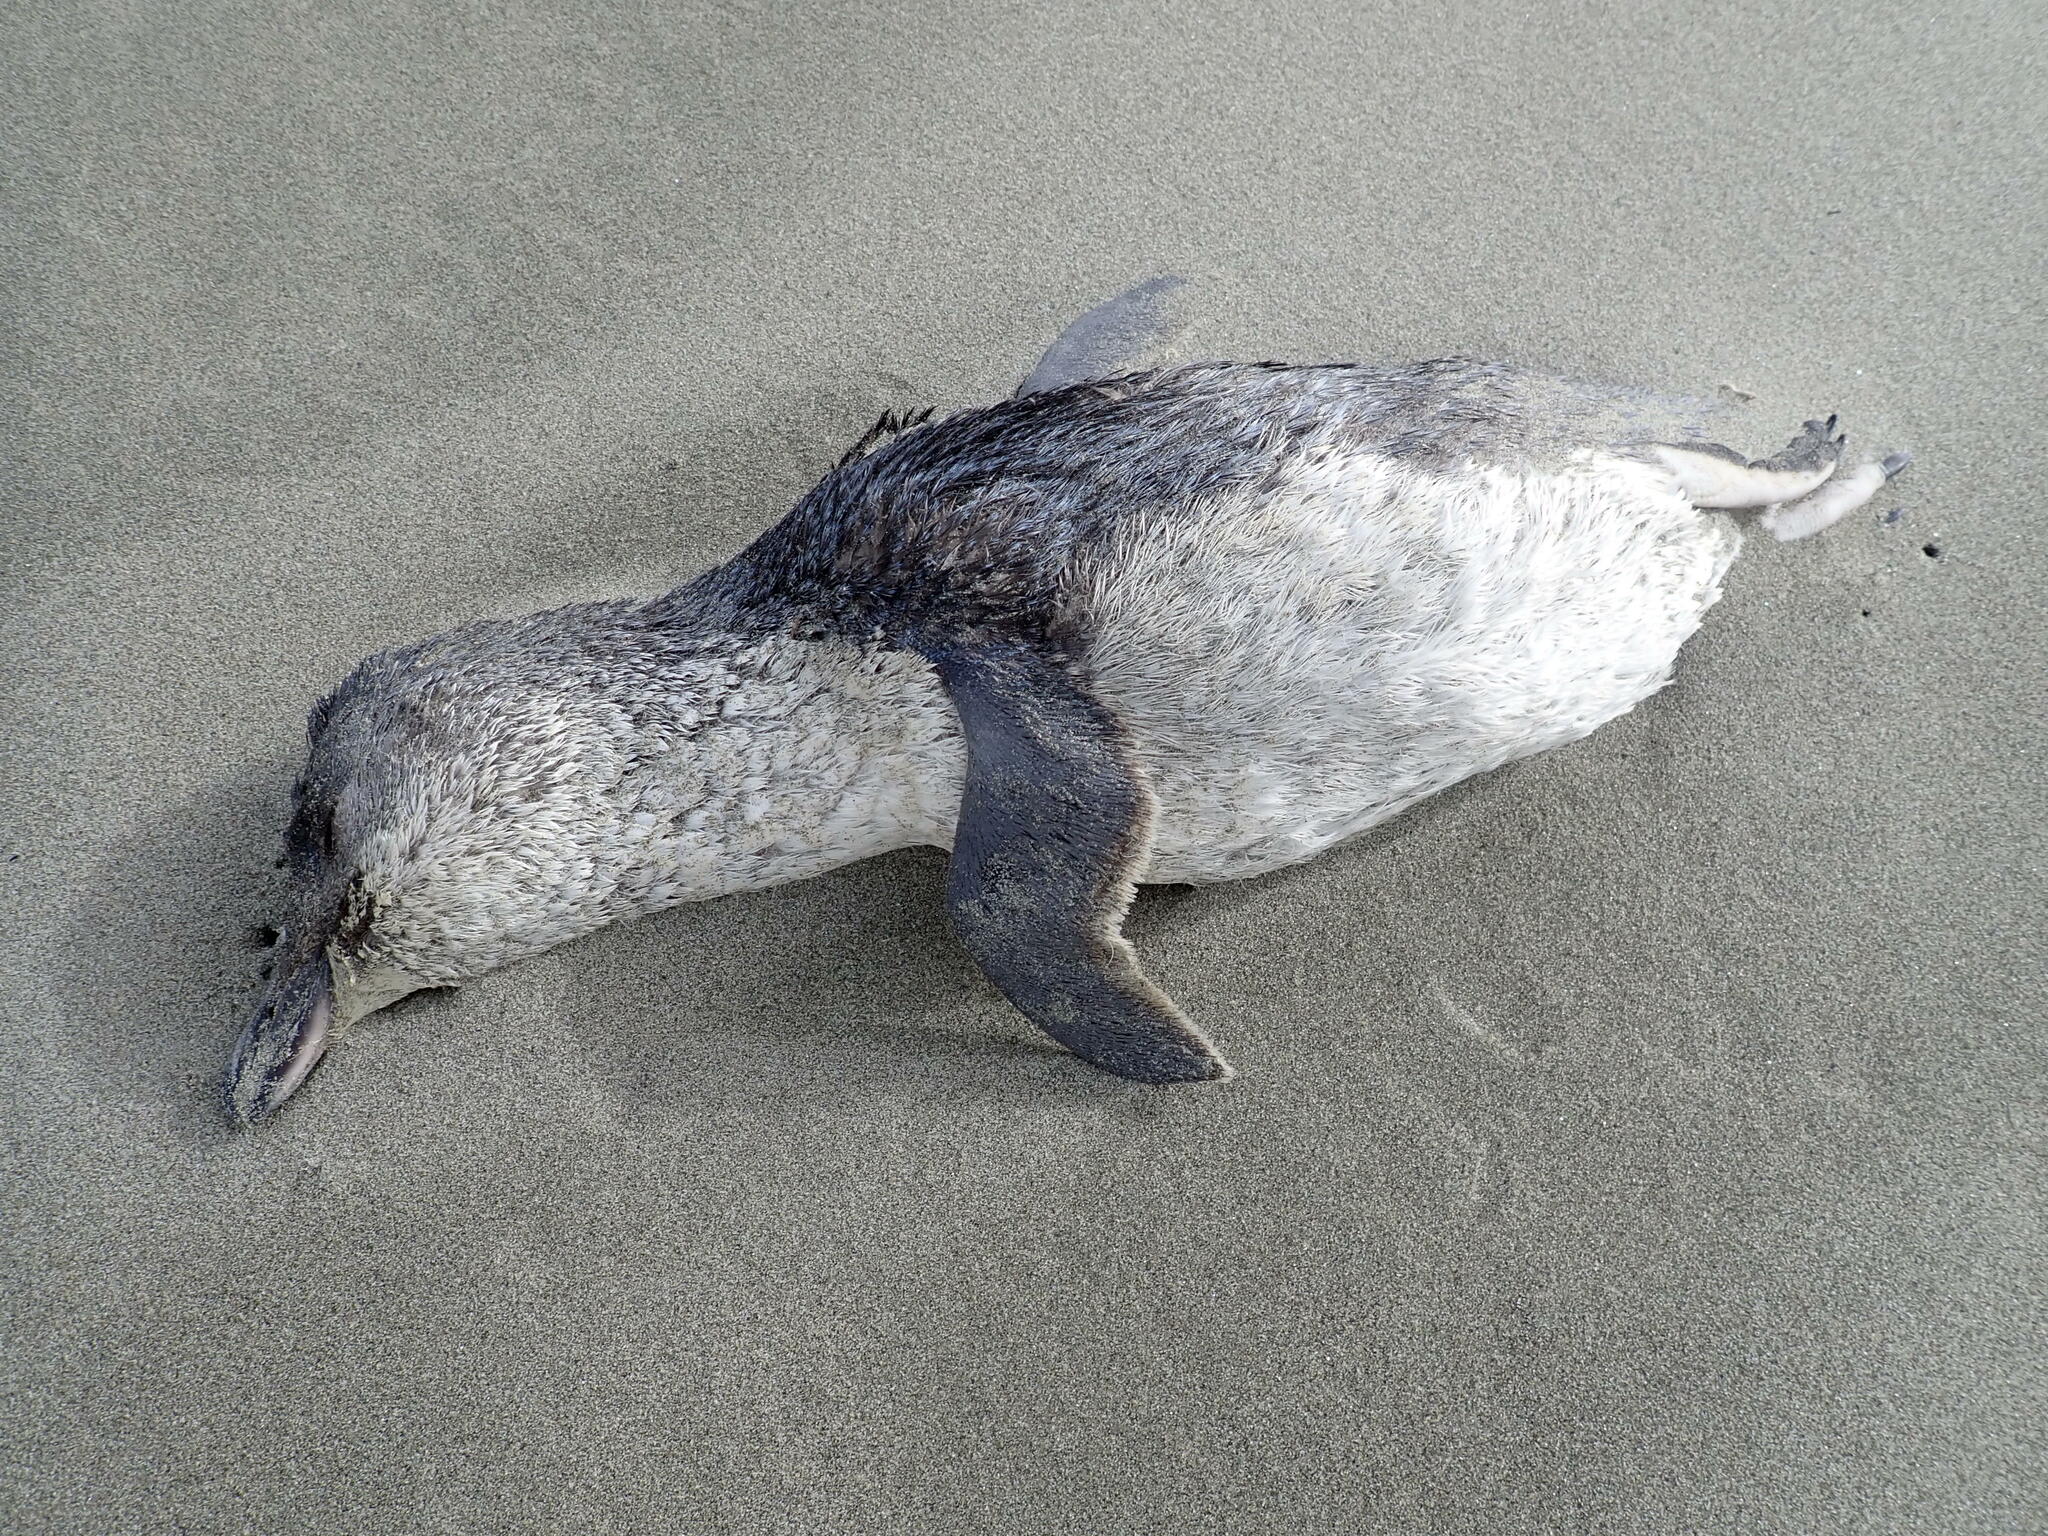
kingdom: Animalia
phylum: Chordata
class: Aves
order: Sphenisciformes
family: Spheniscidae
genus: Eudyptula
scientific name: Eudyptula minor
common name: Little penguin
